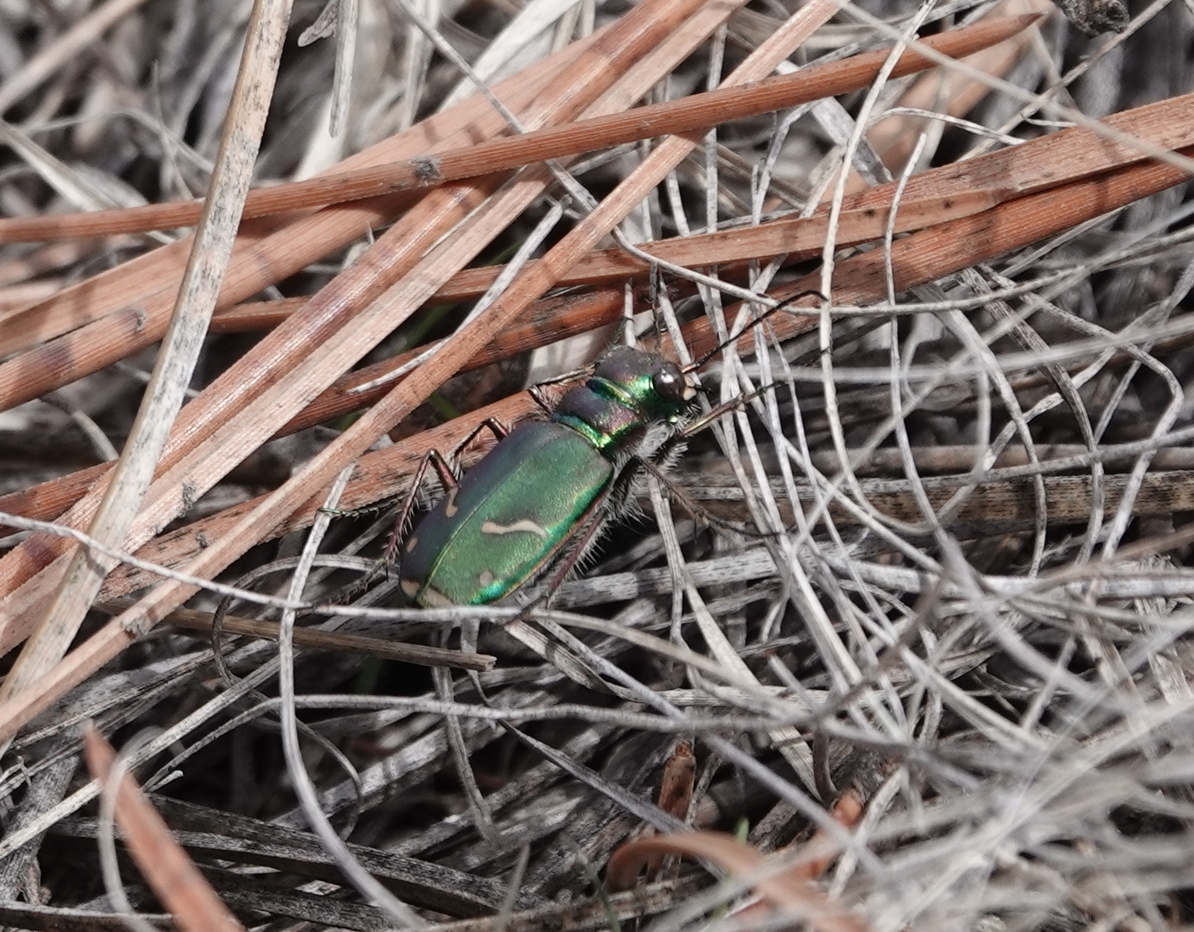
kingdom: Animalia
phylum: Arthropoda
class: Insecta
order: Coleoptera
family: Carabidae
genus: Cicindela
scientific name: Cicindela purpurea
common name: Cow path tiger beetle
